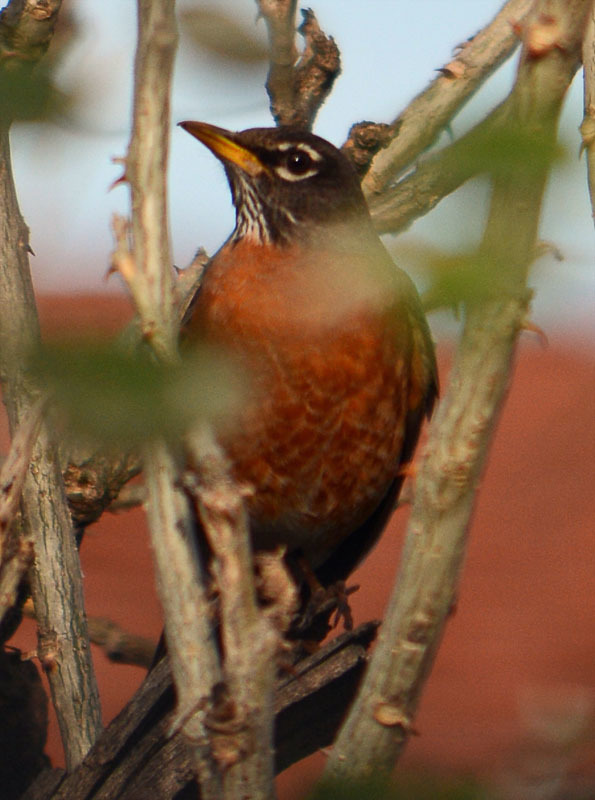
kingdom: Animalia
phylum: Chordata
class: Aves
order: Passeriformes
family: Turdidae
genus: Turdus
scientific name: Turdus migratorius
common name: American robin
